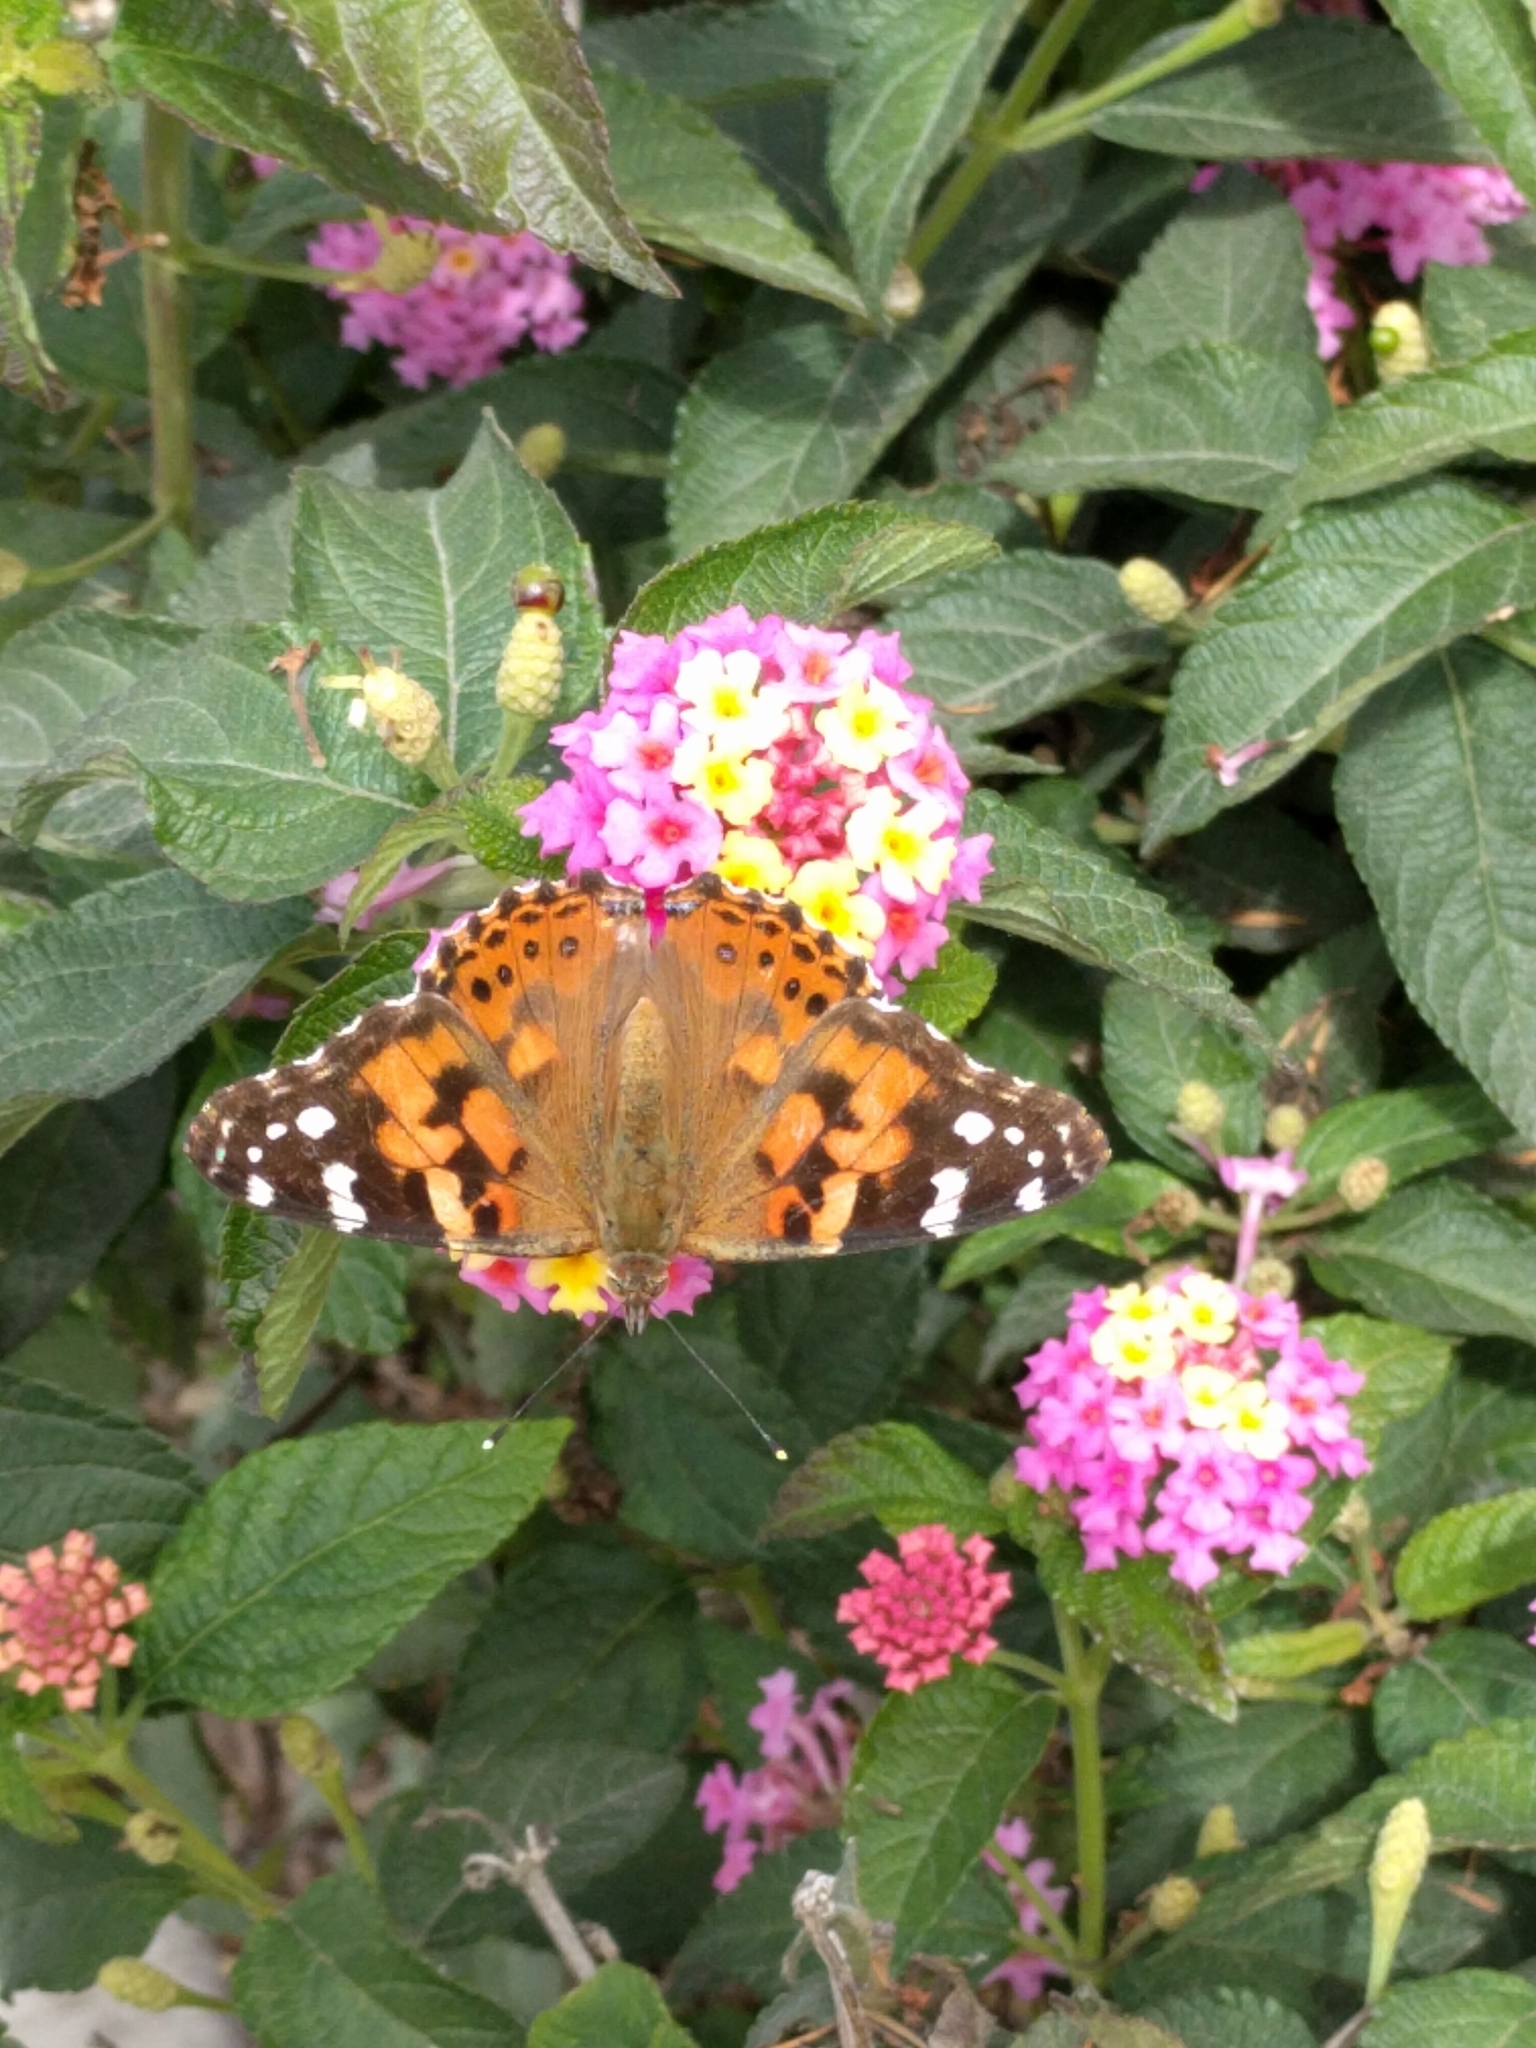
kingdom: Animalia
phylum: Arthropoda
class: Insecta
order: Lepidoptera
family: Nymphalidae
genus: Vanessa
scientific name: Vanessa cardui
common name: Painted lady
